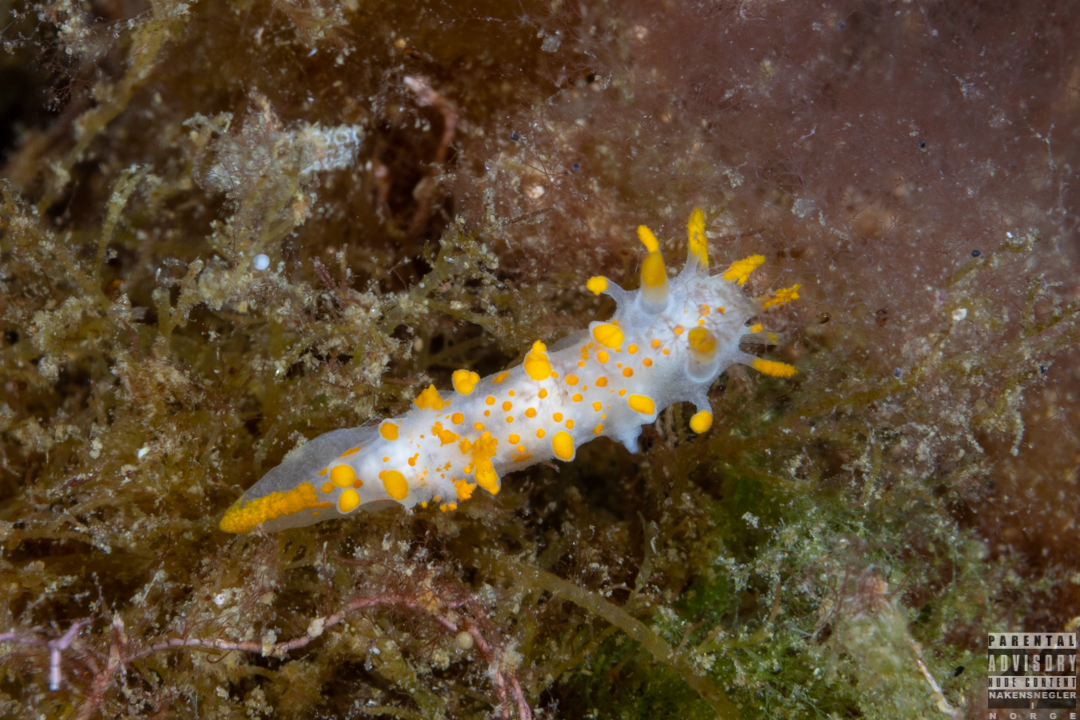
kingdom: Animalia
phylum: Mollusca
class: Gastropoda
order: Nudibranchia
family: Polyceridae
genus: Limacia
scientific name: Limacia clavigera
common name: Orange-clubbed sea slug
